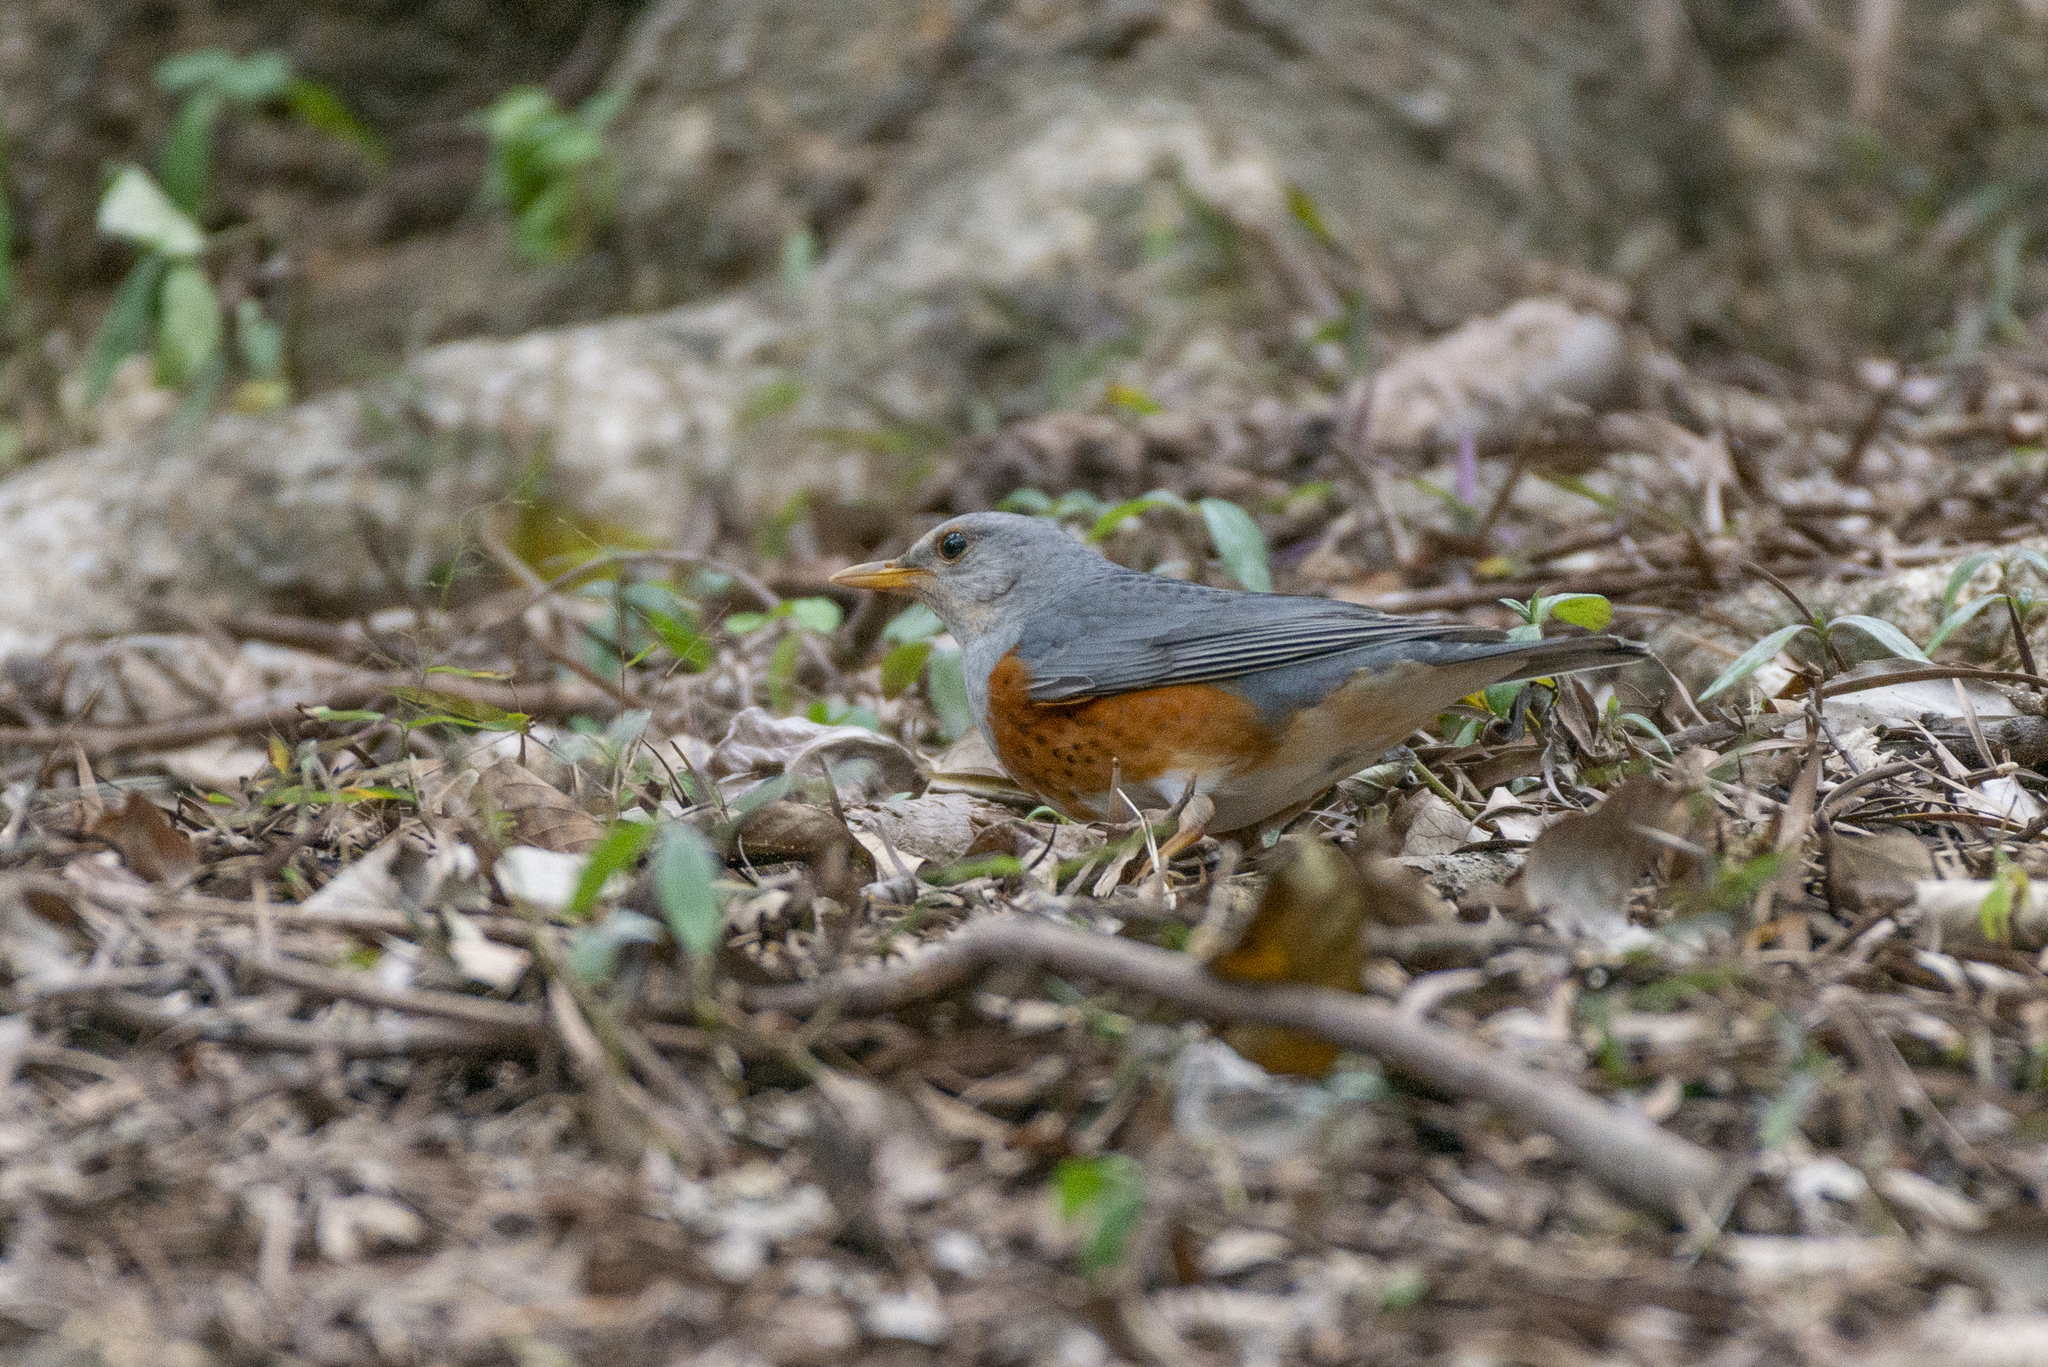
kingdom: Animalia
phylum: Chordata
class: Aves
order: Passeriformes
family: Turdidae
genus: Turdus
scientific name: Turdus hortulorum
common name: Grey-backed thrush
